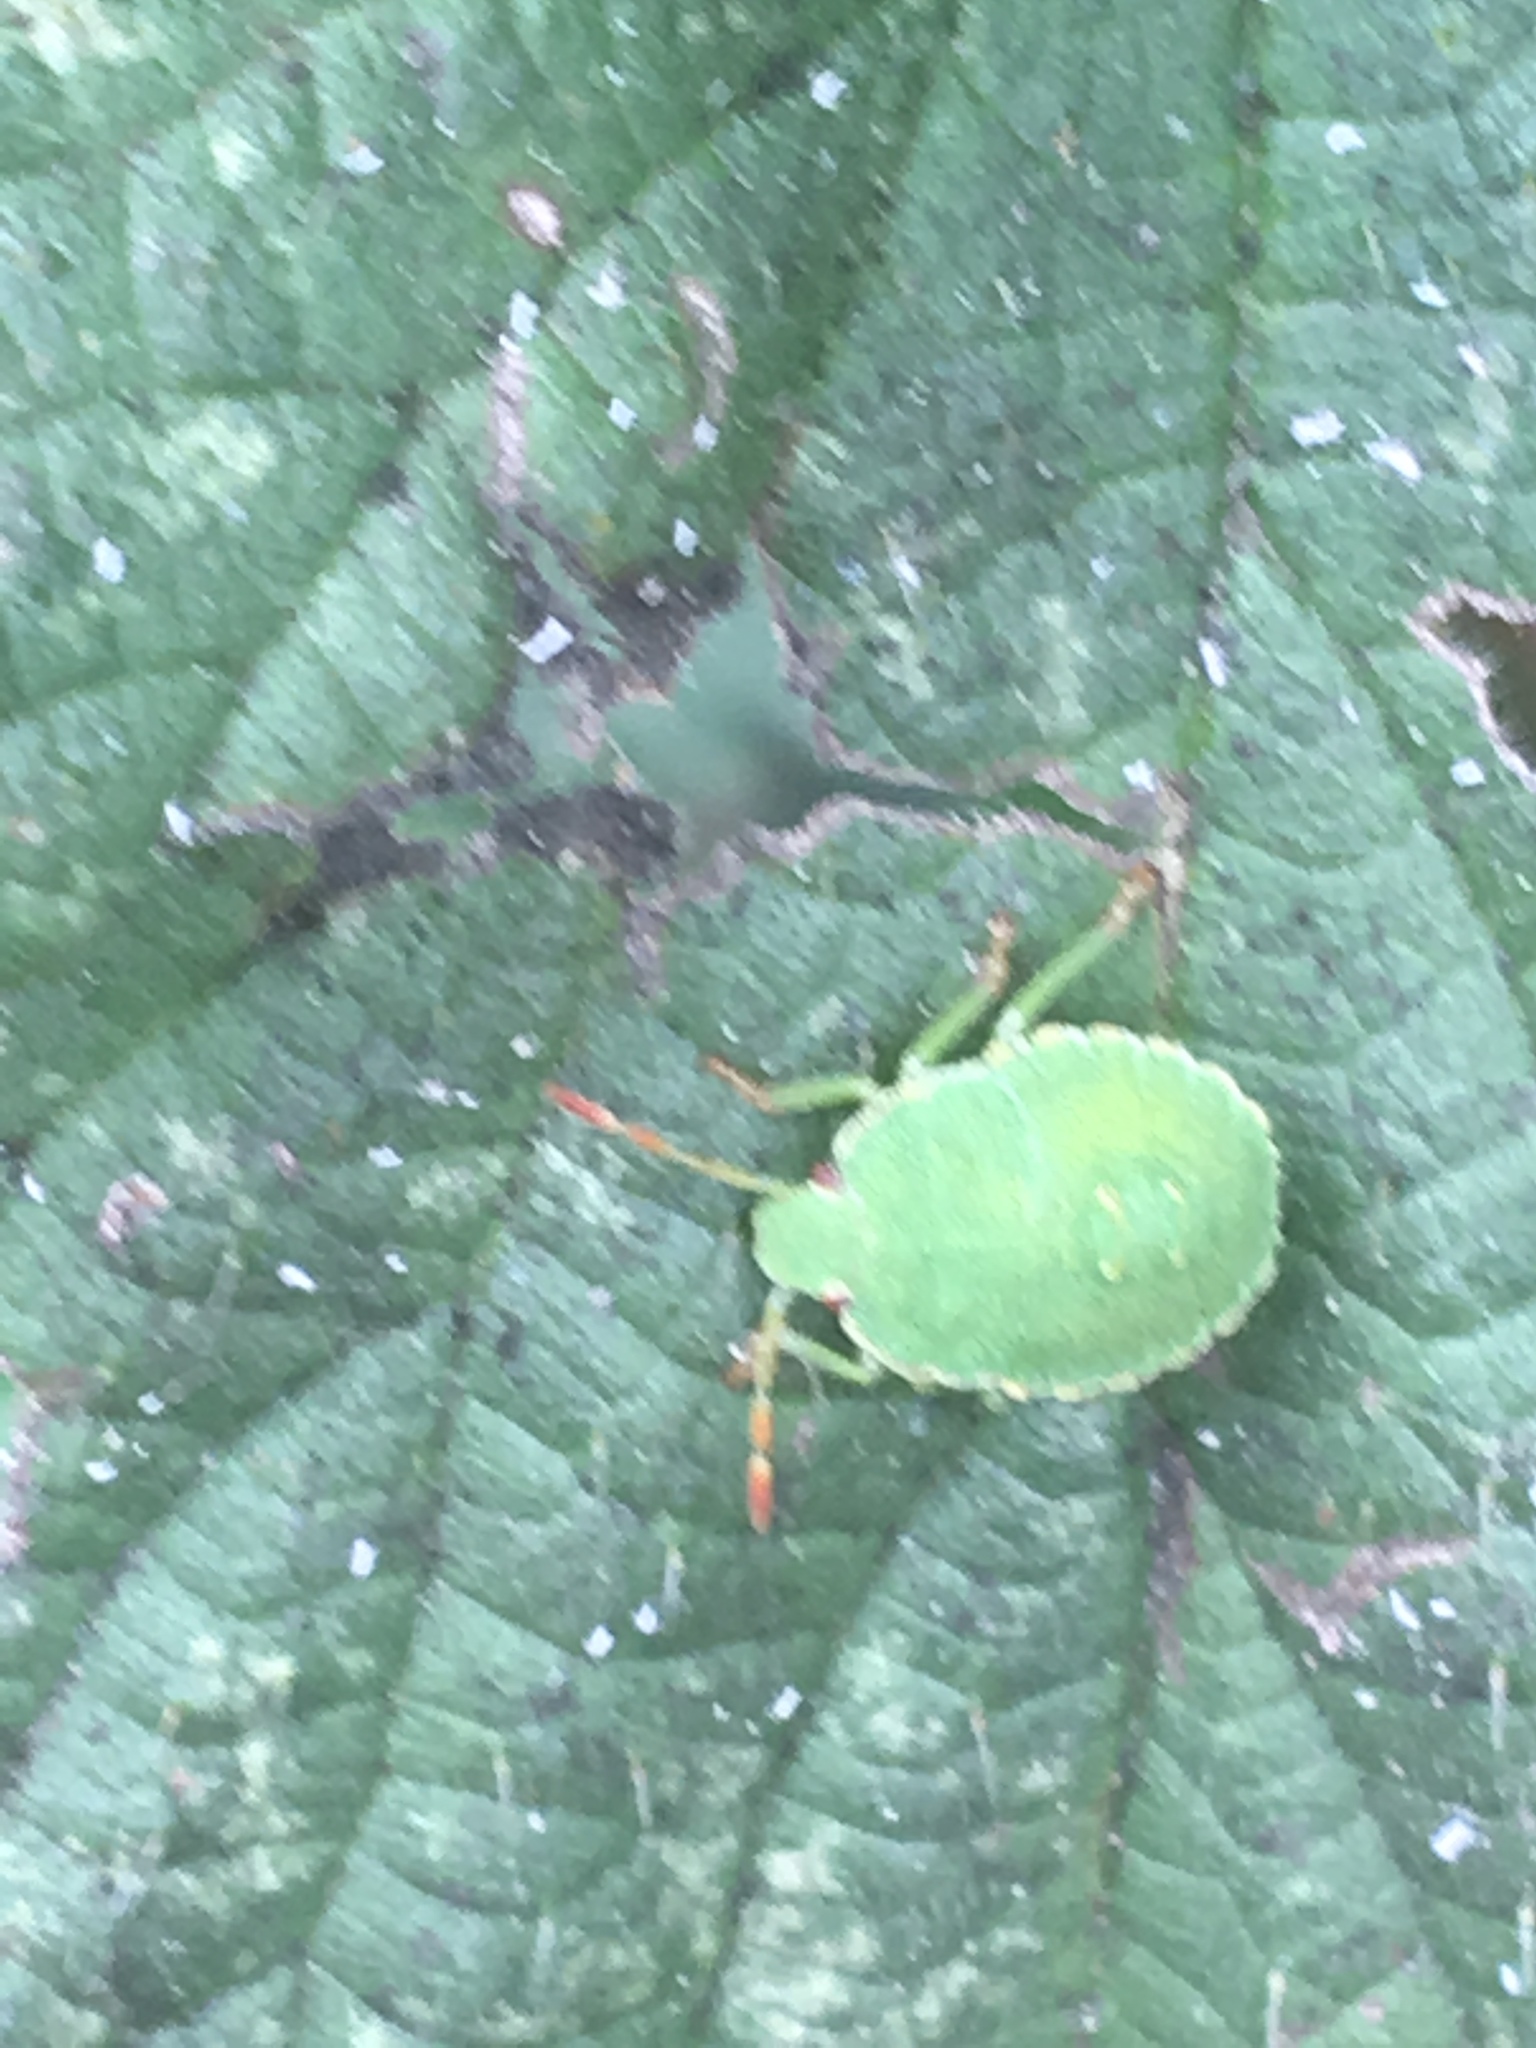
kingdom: Animalia
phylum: Arthropoda
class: Insecta
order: Hemiptera
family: Pentatomidae
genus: Palomena
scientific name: Palomena prasina
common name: Green shieldbug
